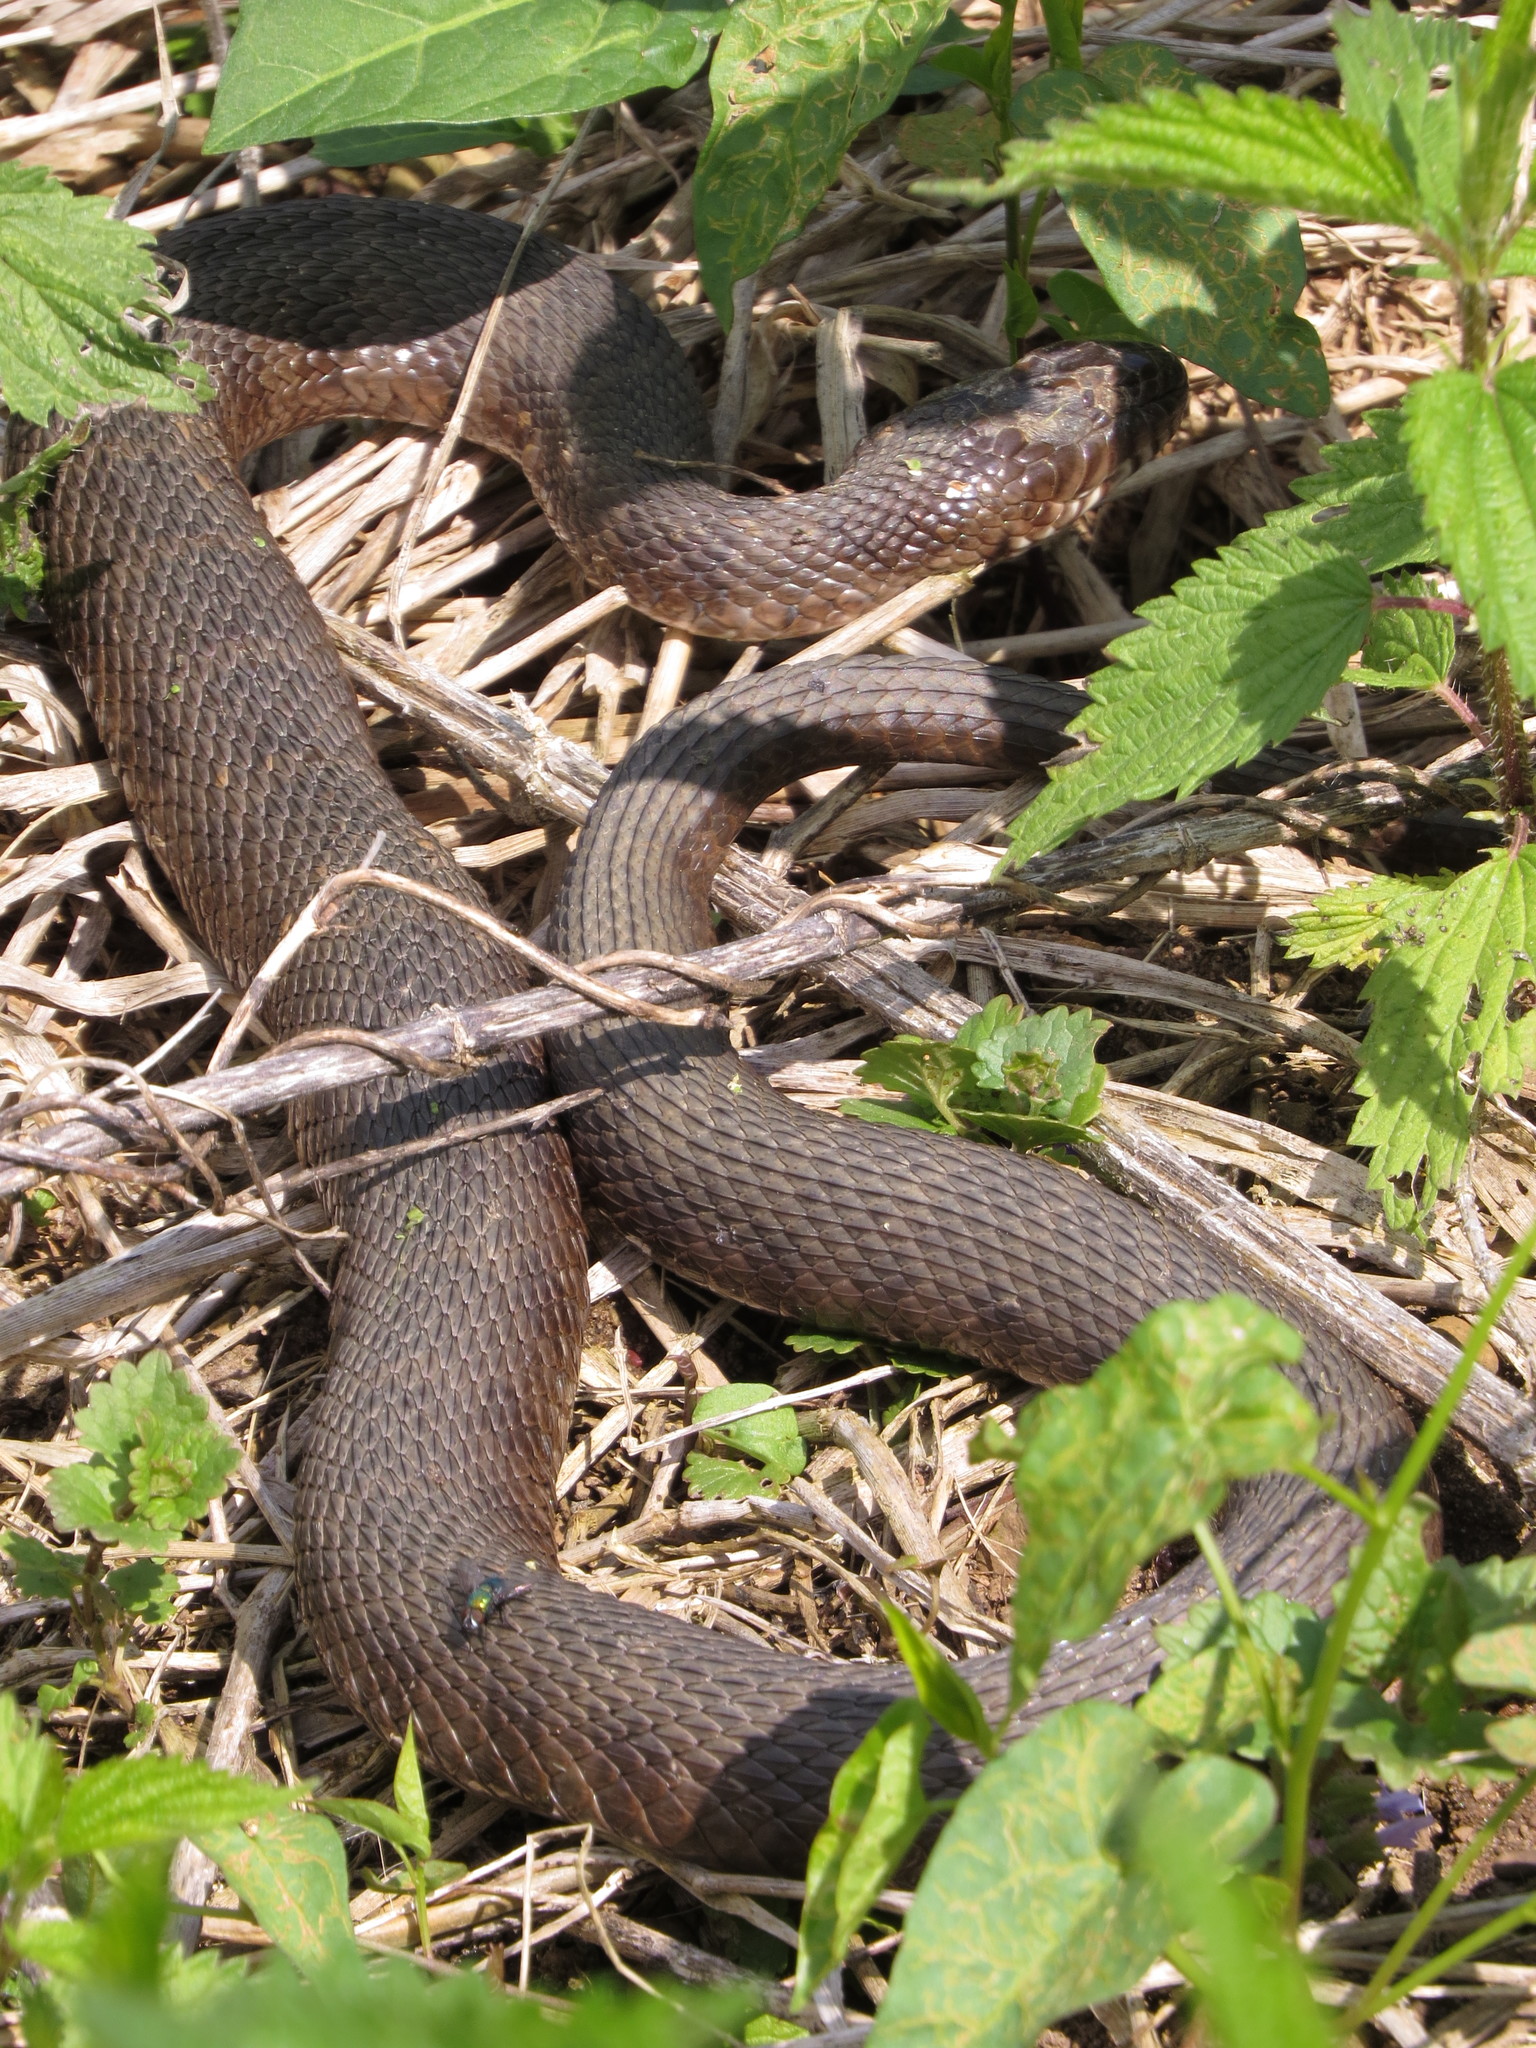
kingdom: Animalia
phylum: Chordata
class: Squamata
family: Colubridae
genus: Nerodia
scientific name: Nerodia sipedon
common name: Northern water snake
